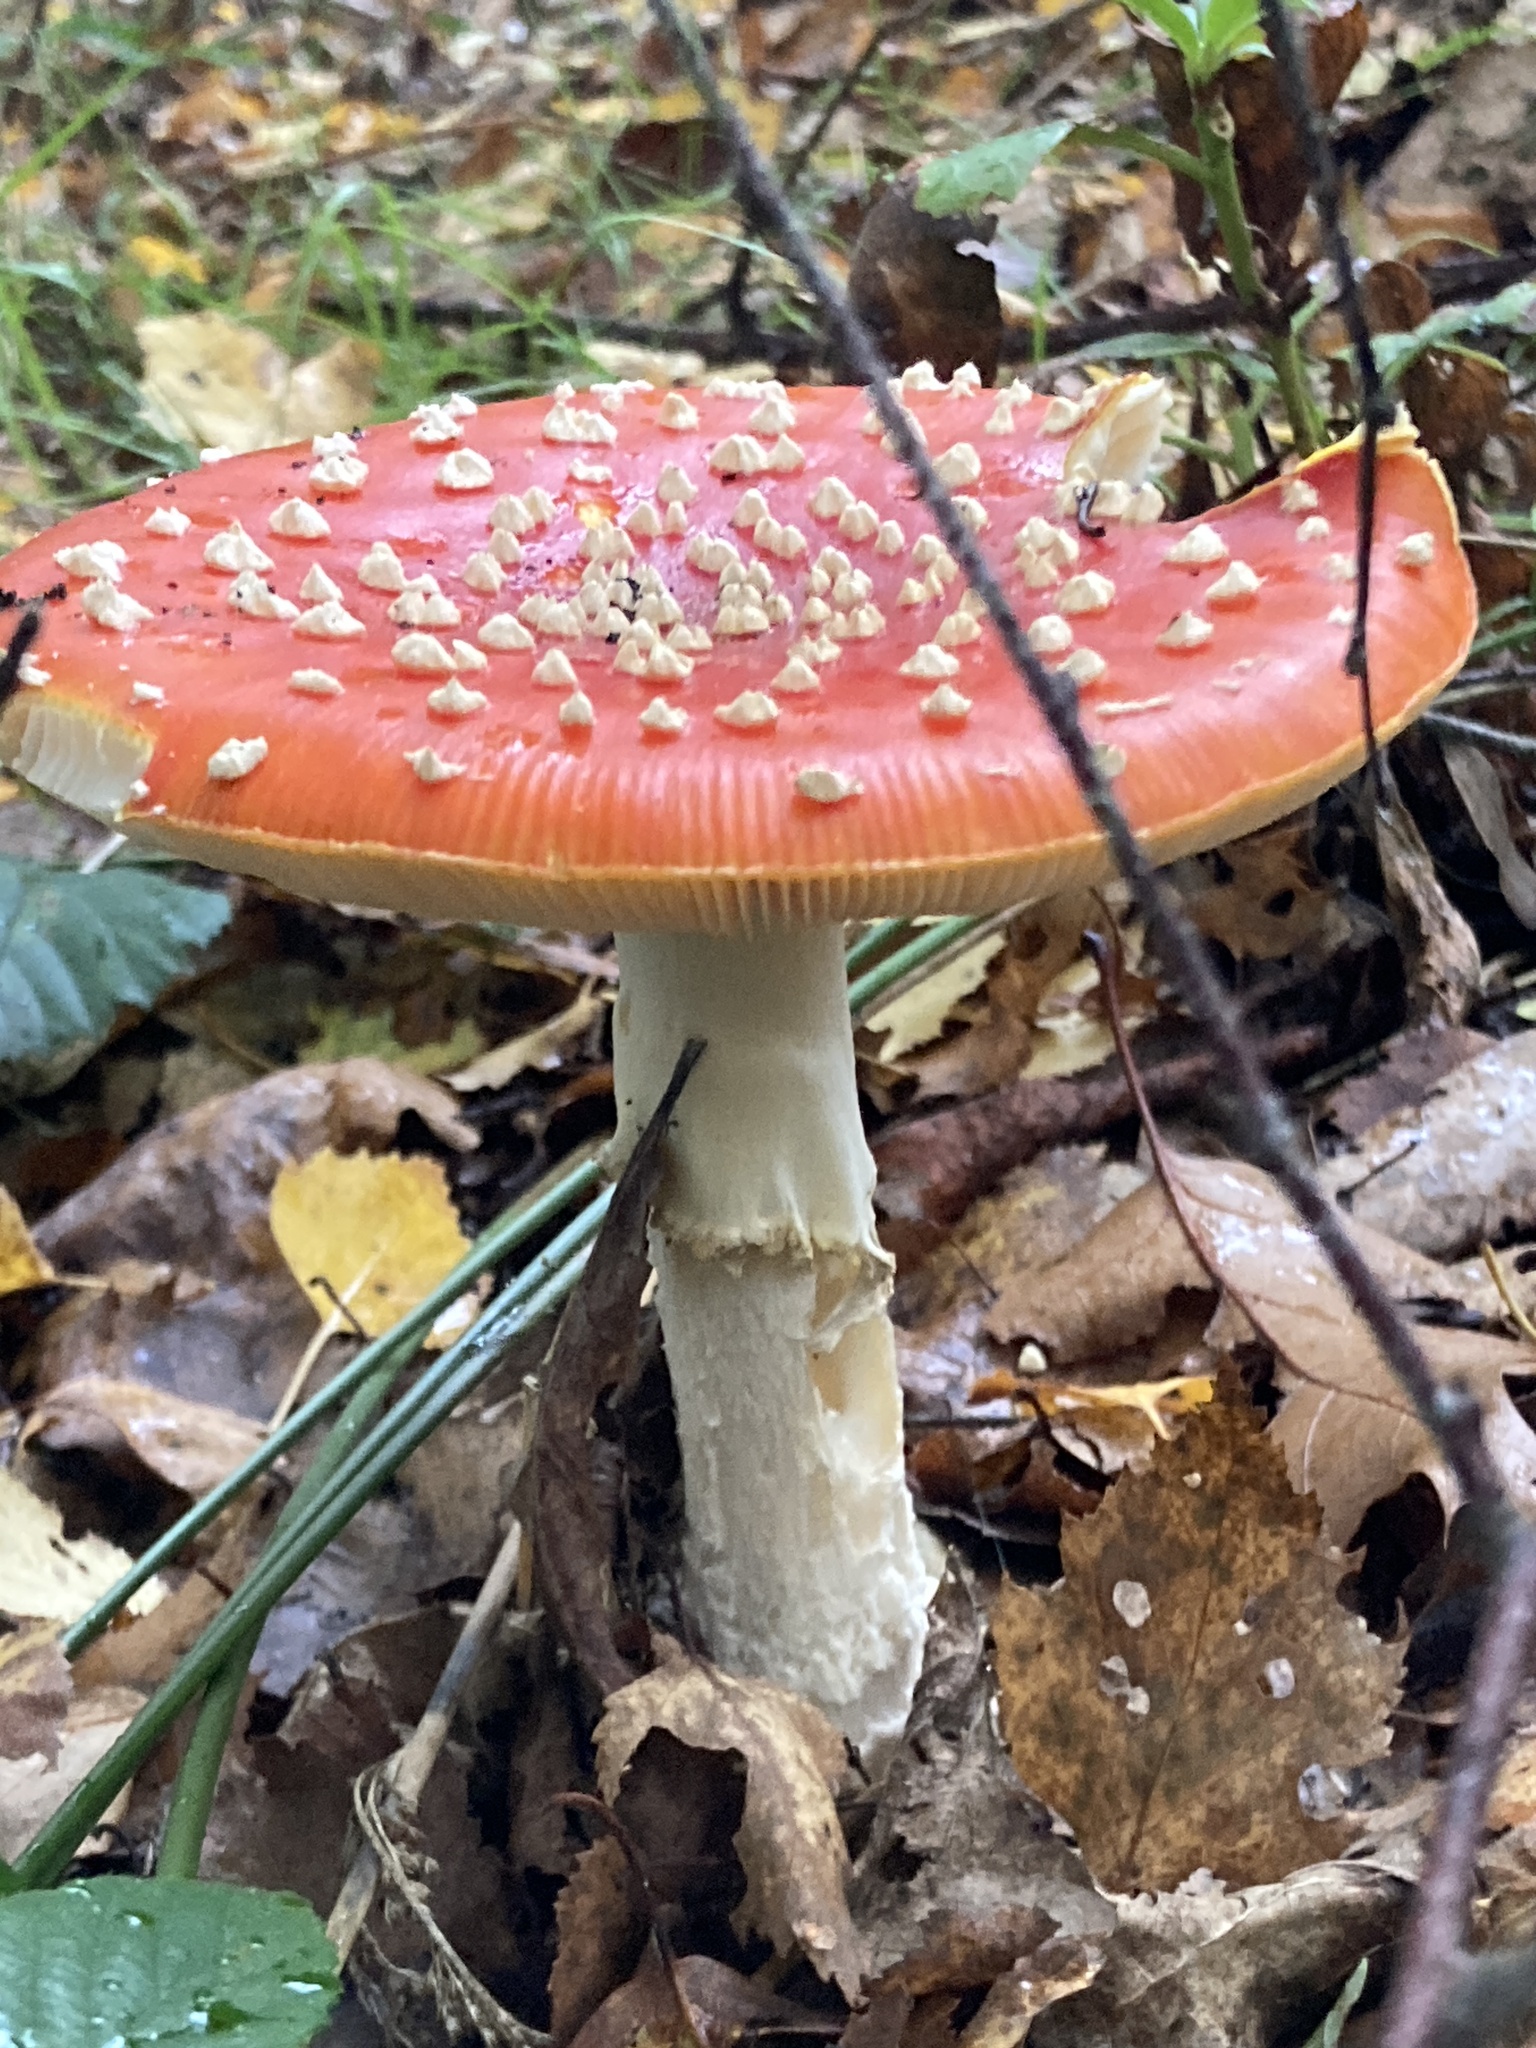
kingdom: Fungi
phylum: Basidiomycota
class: Agaricomycetes
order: Agaricales
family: Amanitaceae
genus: Amanita
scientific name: Amanita muscaria
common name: Fly agaric
